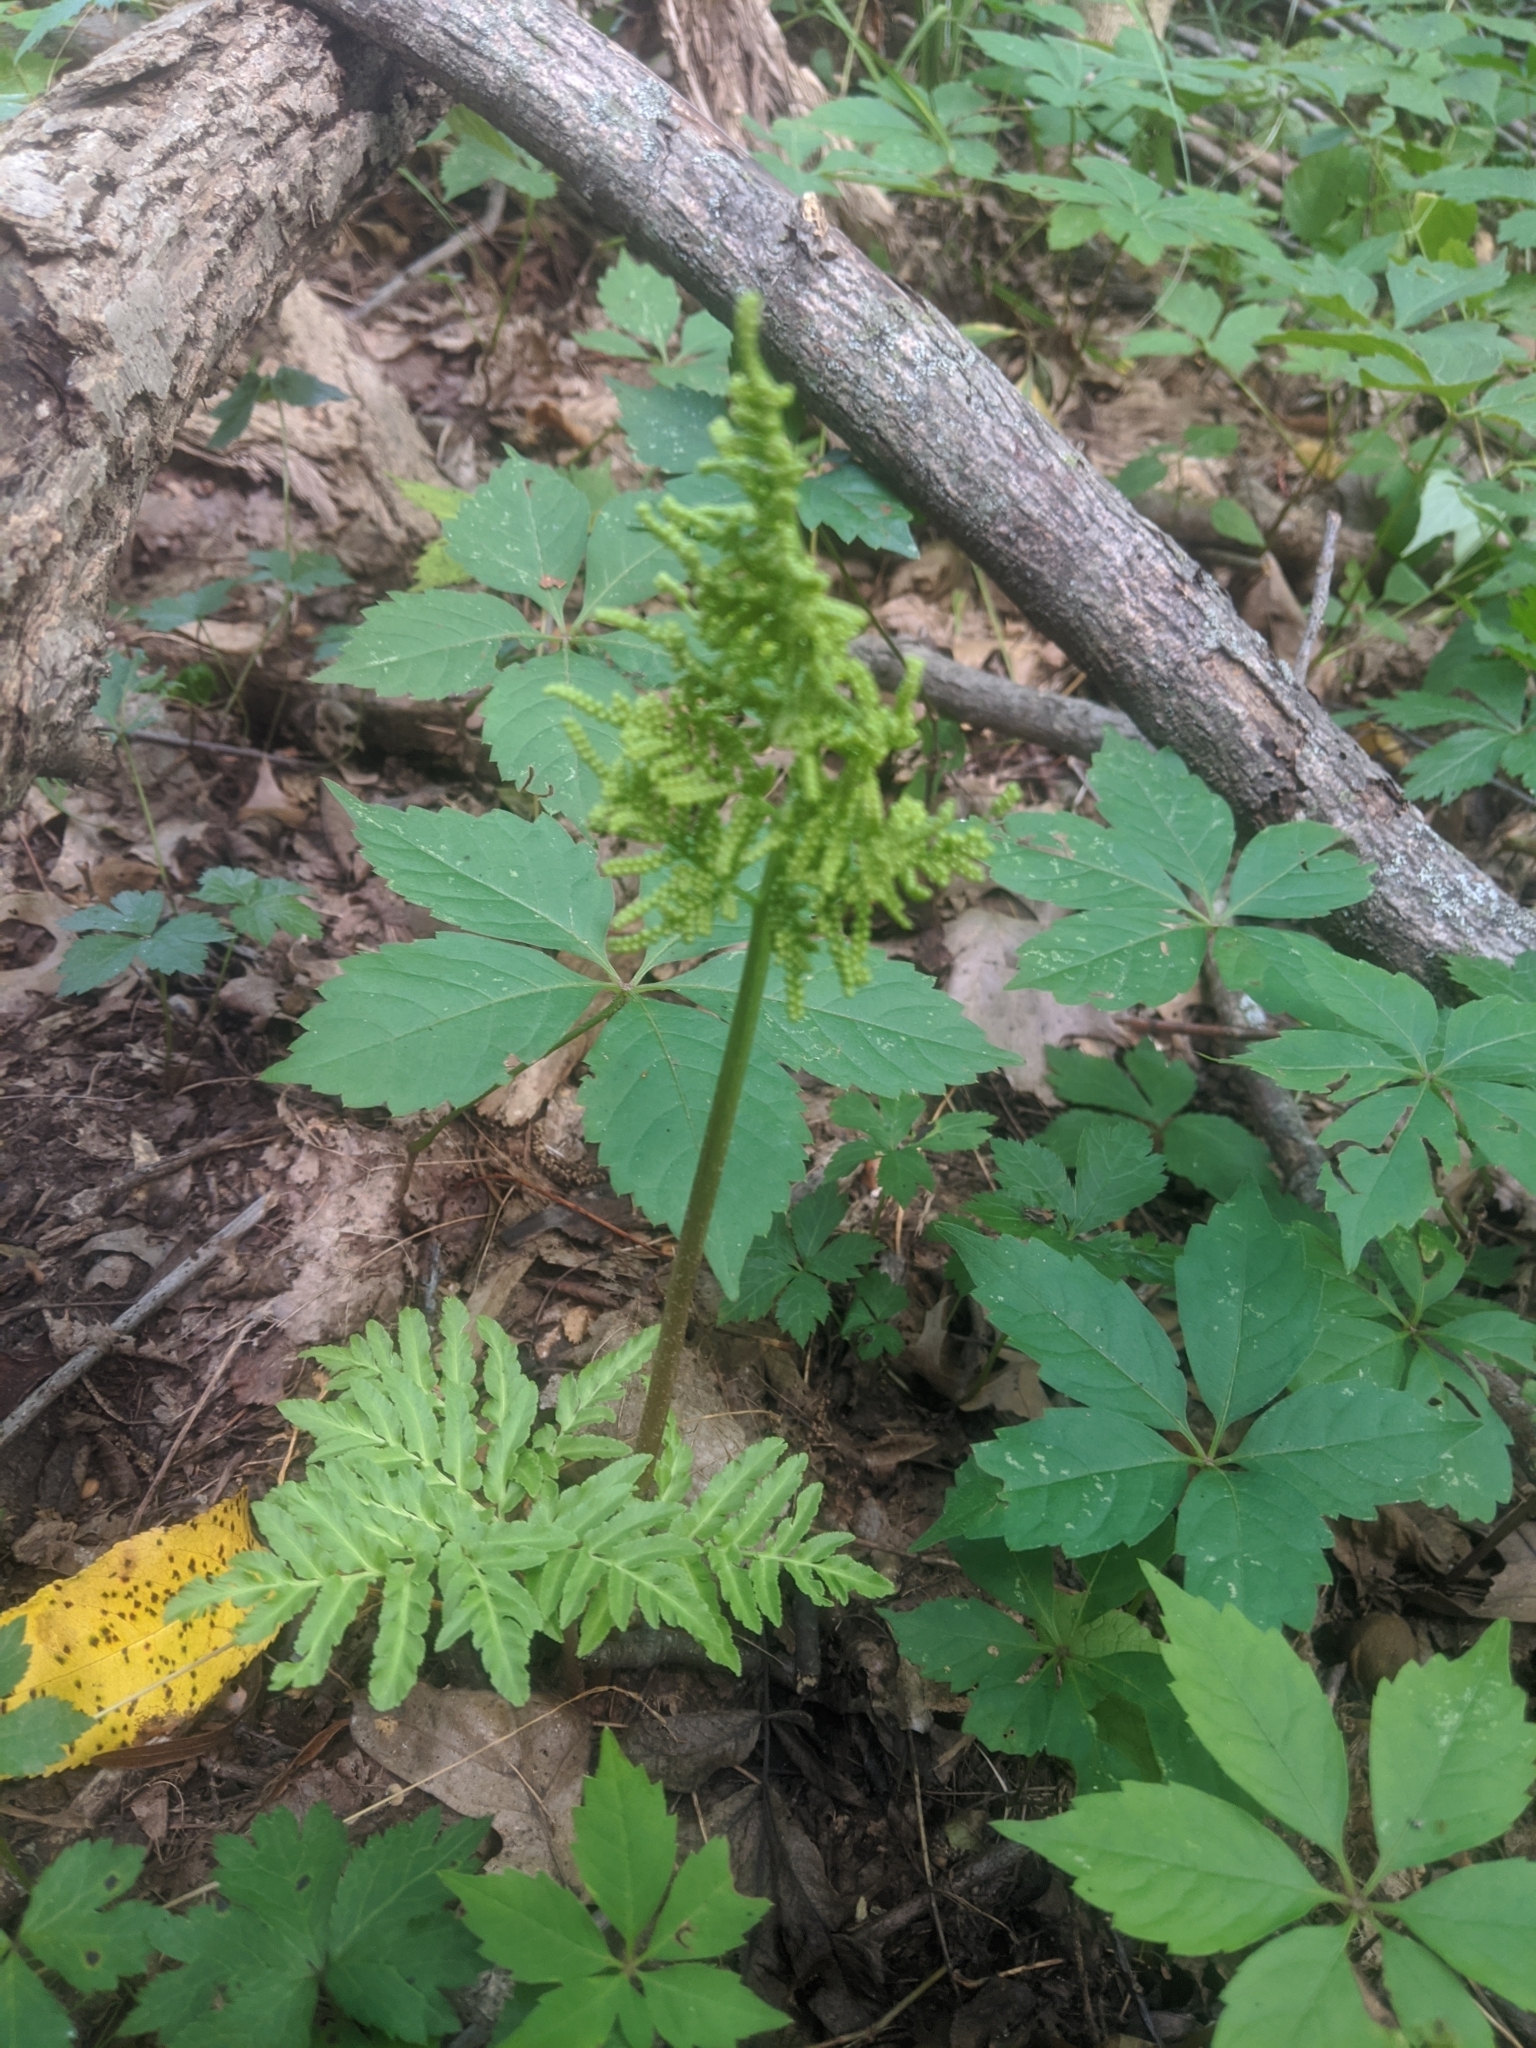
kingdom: Plantae
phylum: Tracheophyta
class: Polypodiopsida
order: Ophioglossales
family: Ophioglossaceae
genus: Sceptridium
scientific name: Sceptridium dissectum
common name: Cut-leaved grapefern
